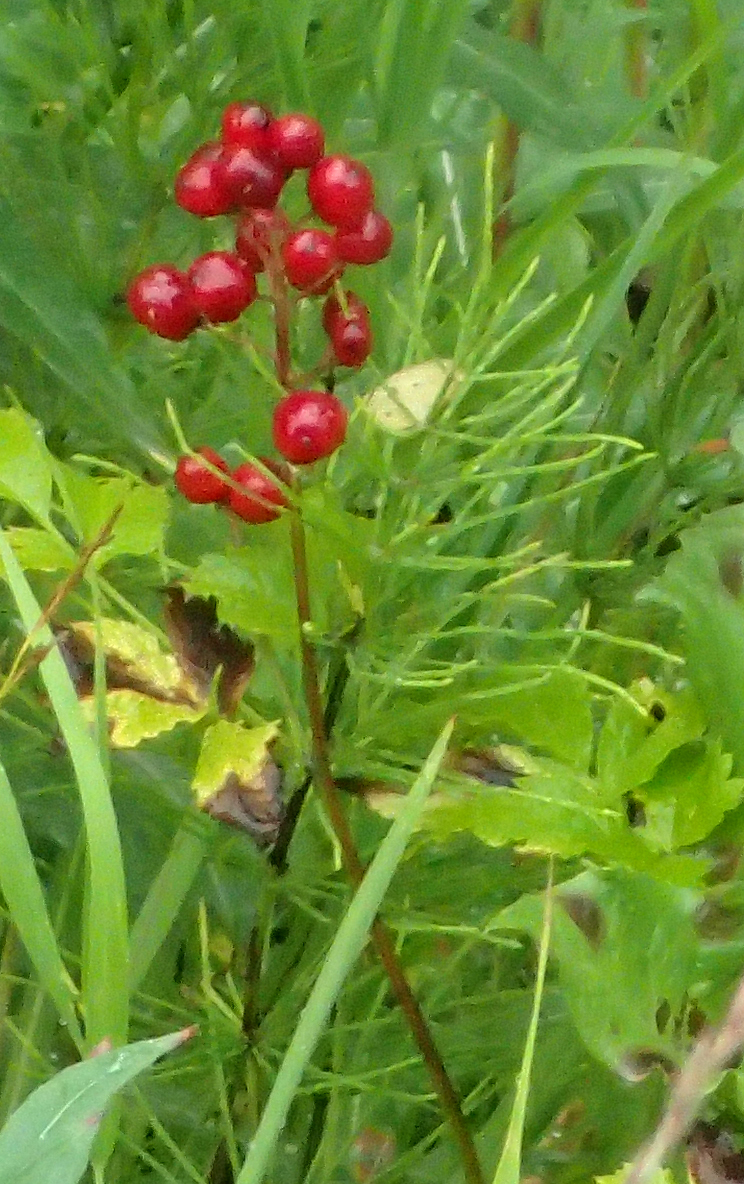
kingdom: Plantae
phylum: Tracheophyta
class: Magnoliopsida
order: Ranunculales
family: Ranunculaceae
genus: Actaea
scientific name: Actaea rubra
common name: Red baneberry
